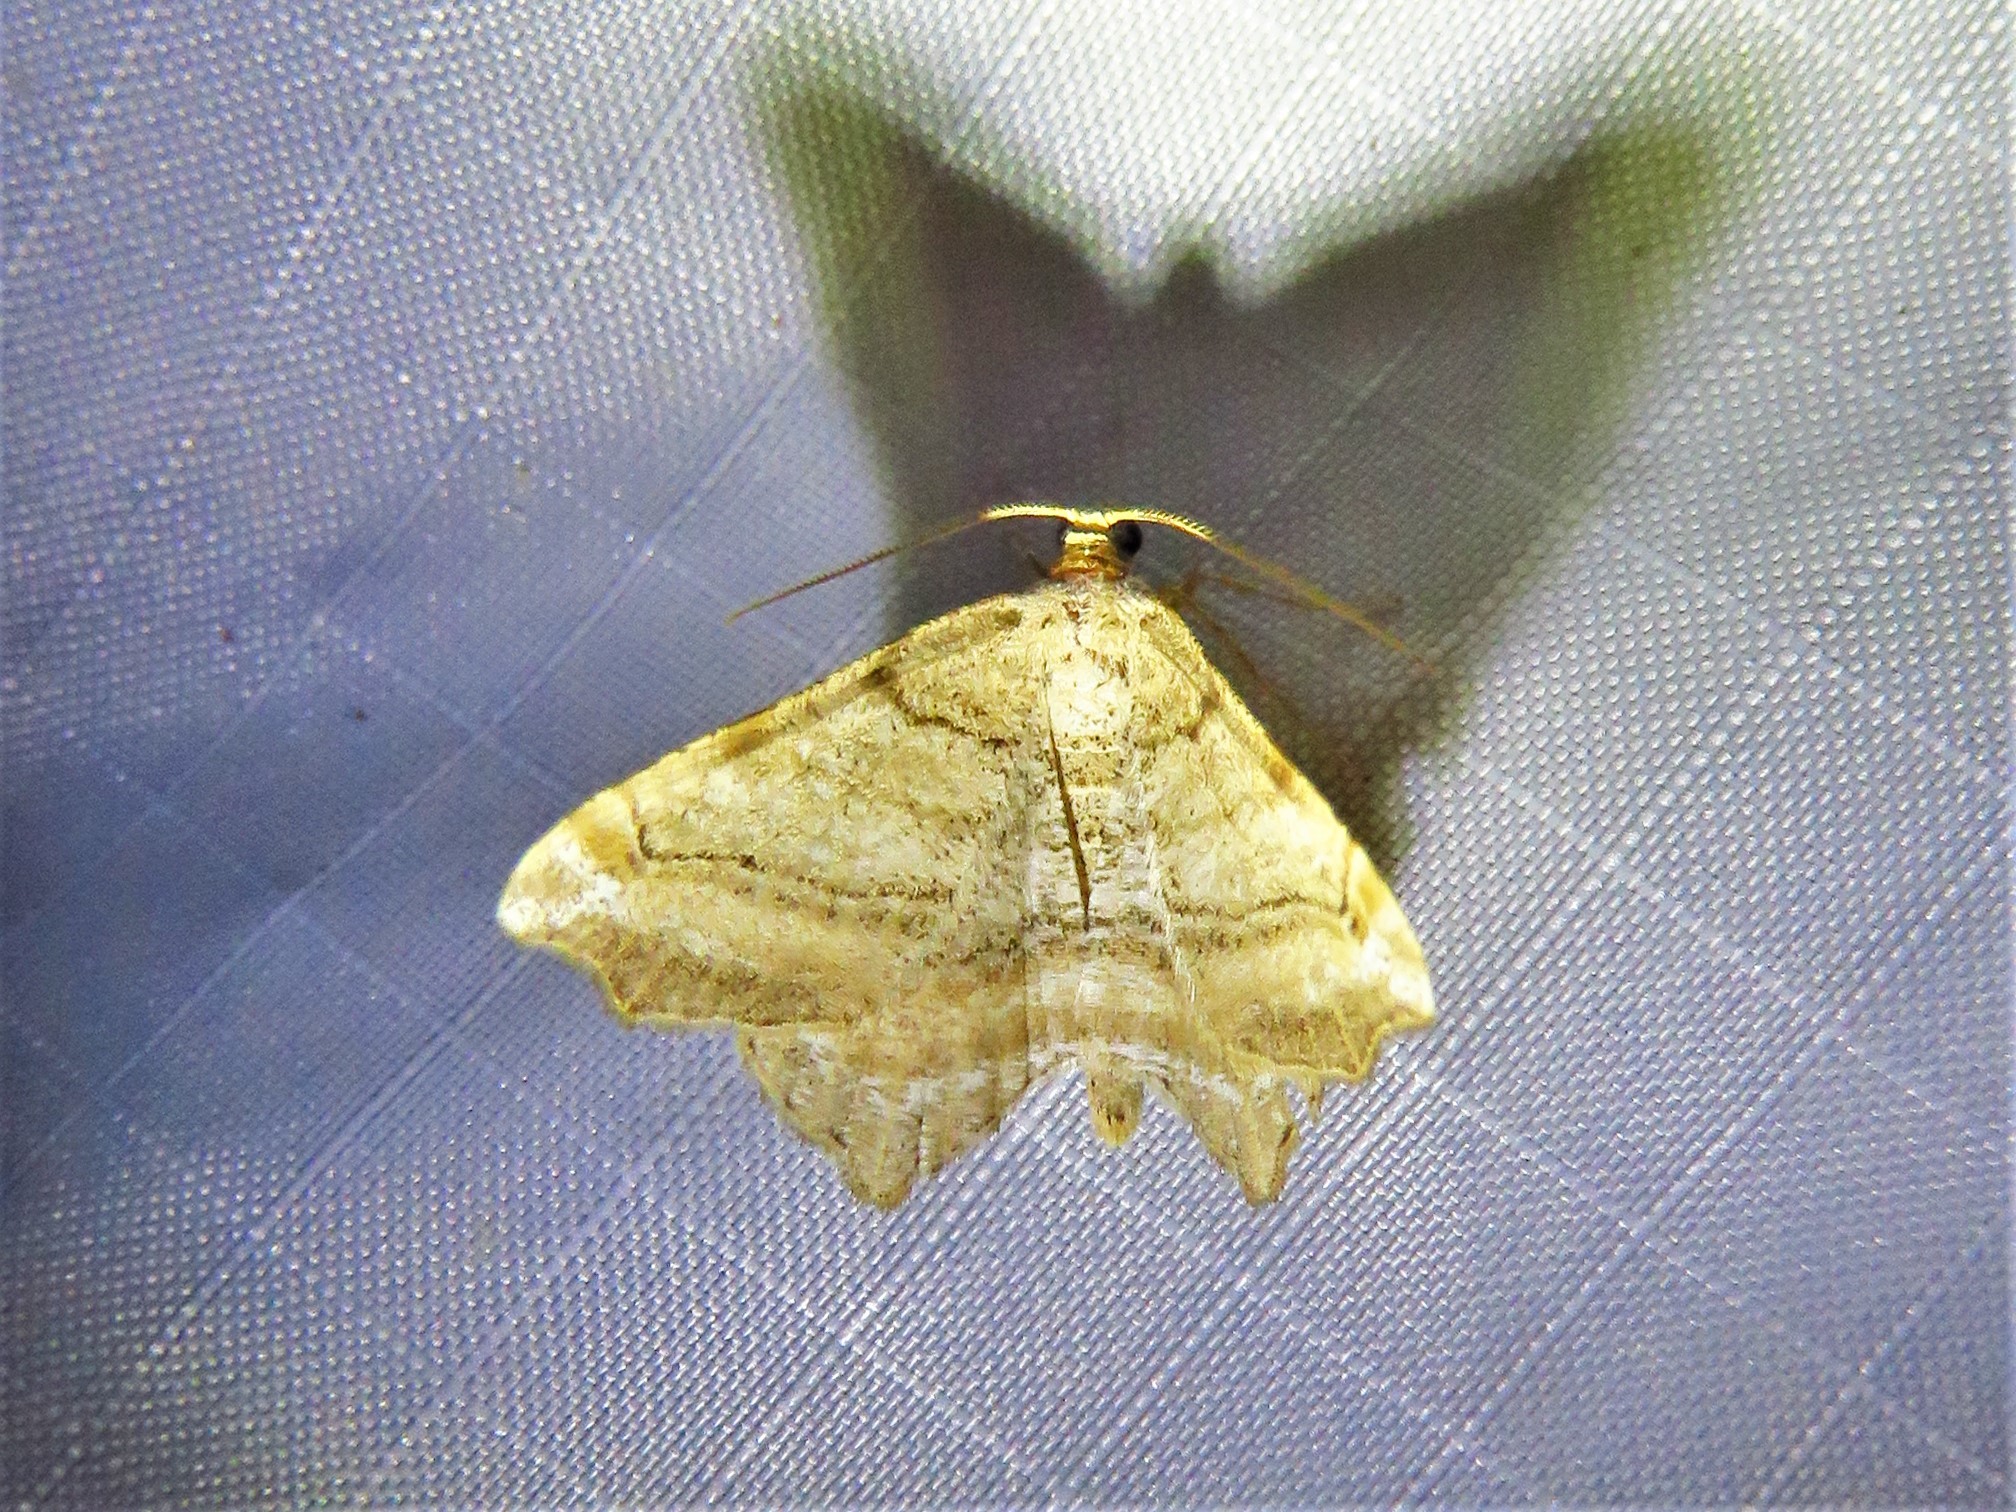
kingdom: Animalia
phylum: Arthropoda
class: Insecta
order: Lepidoptera
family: Geometridae
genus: Macaria
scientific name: Macaria multilineata
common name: Many-lined angle
